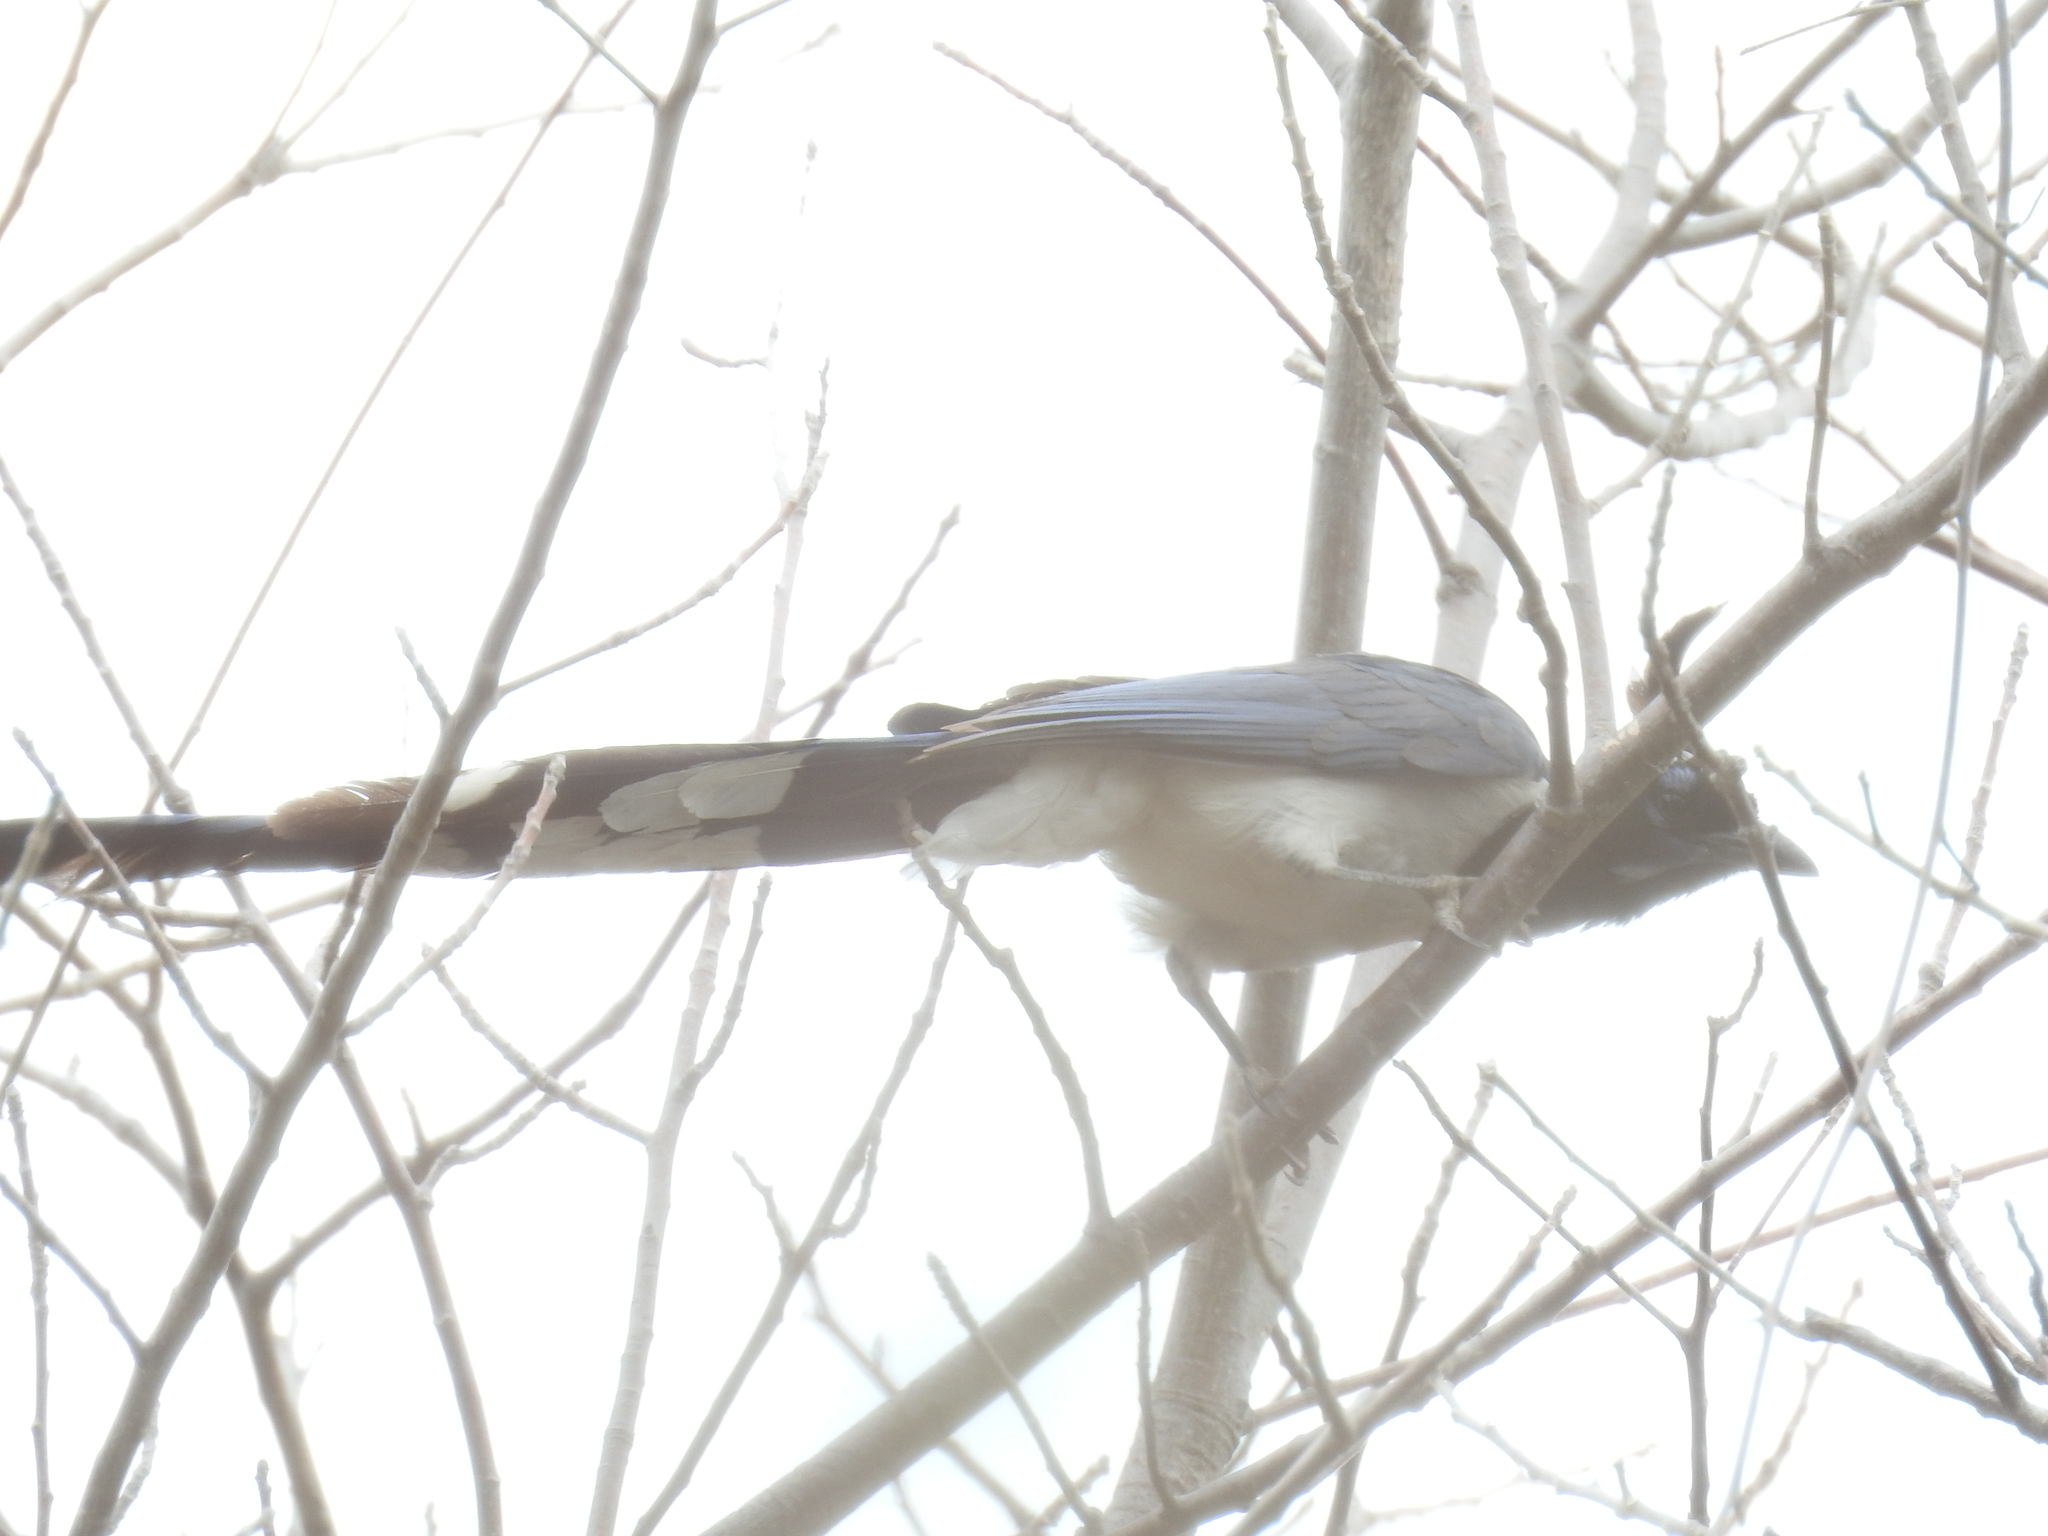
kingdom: Animalia
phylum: Chordata
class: Aves
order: Passeriformes
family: Corvidae
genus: Calocitta
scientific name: Calocitta colliei
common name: Black-throated magpie-jay
